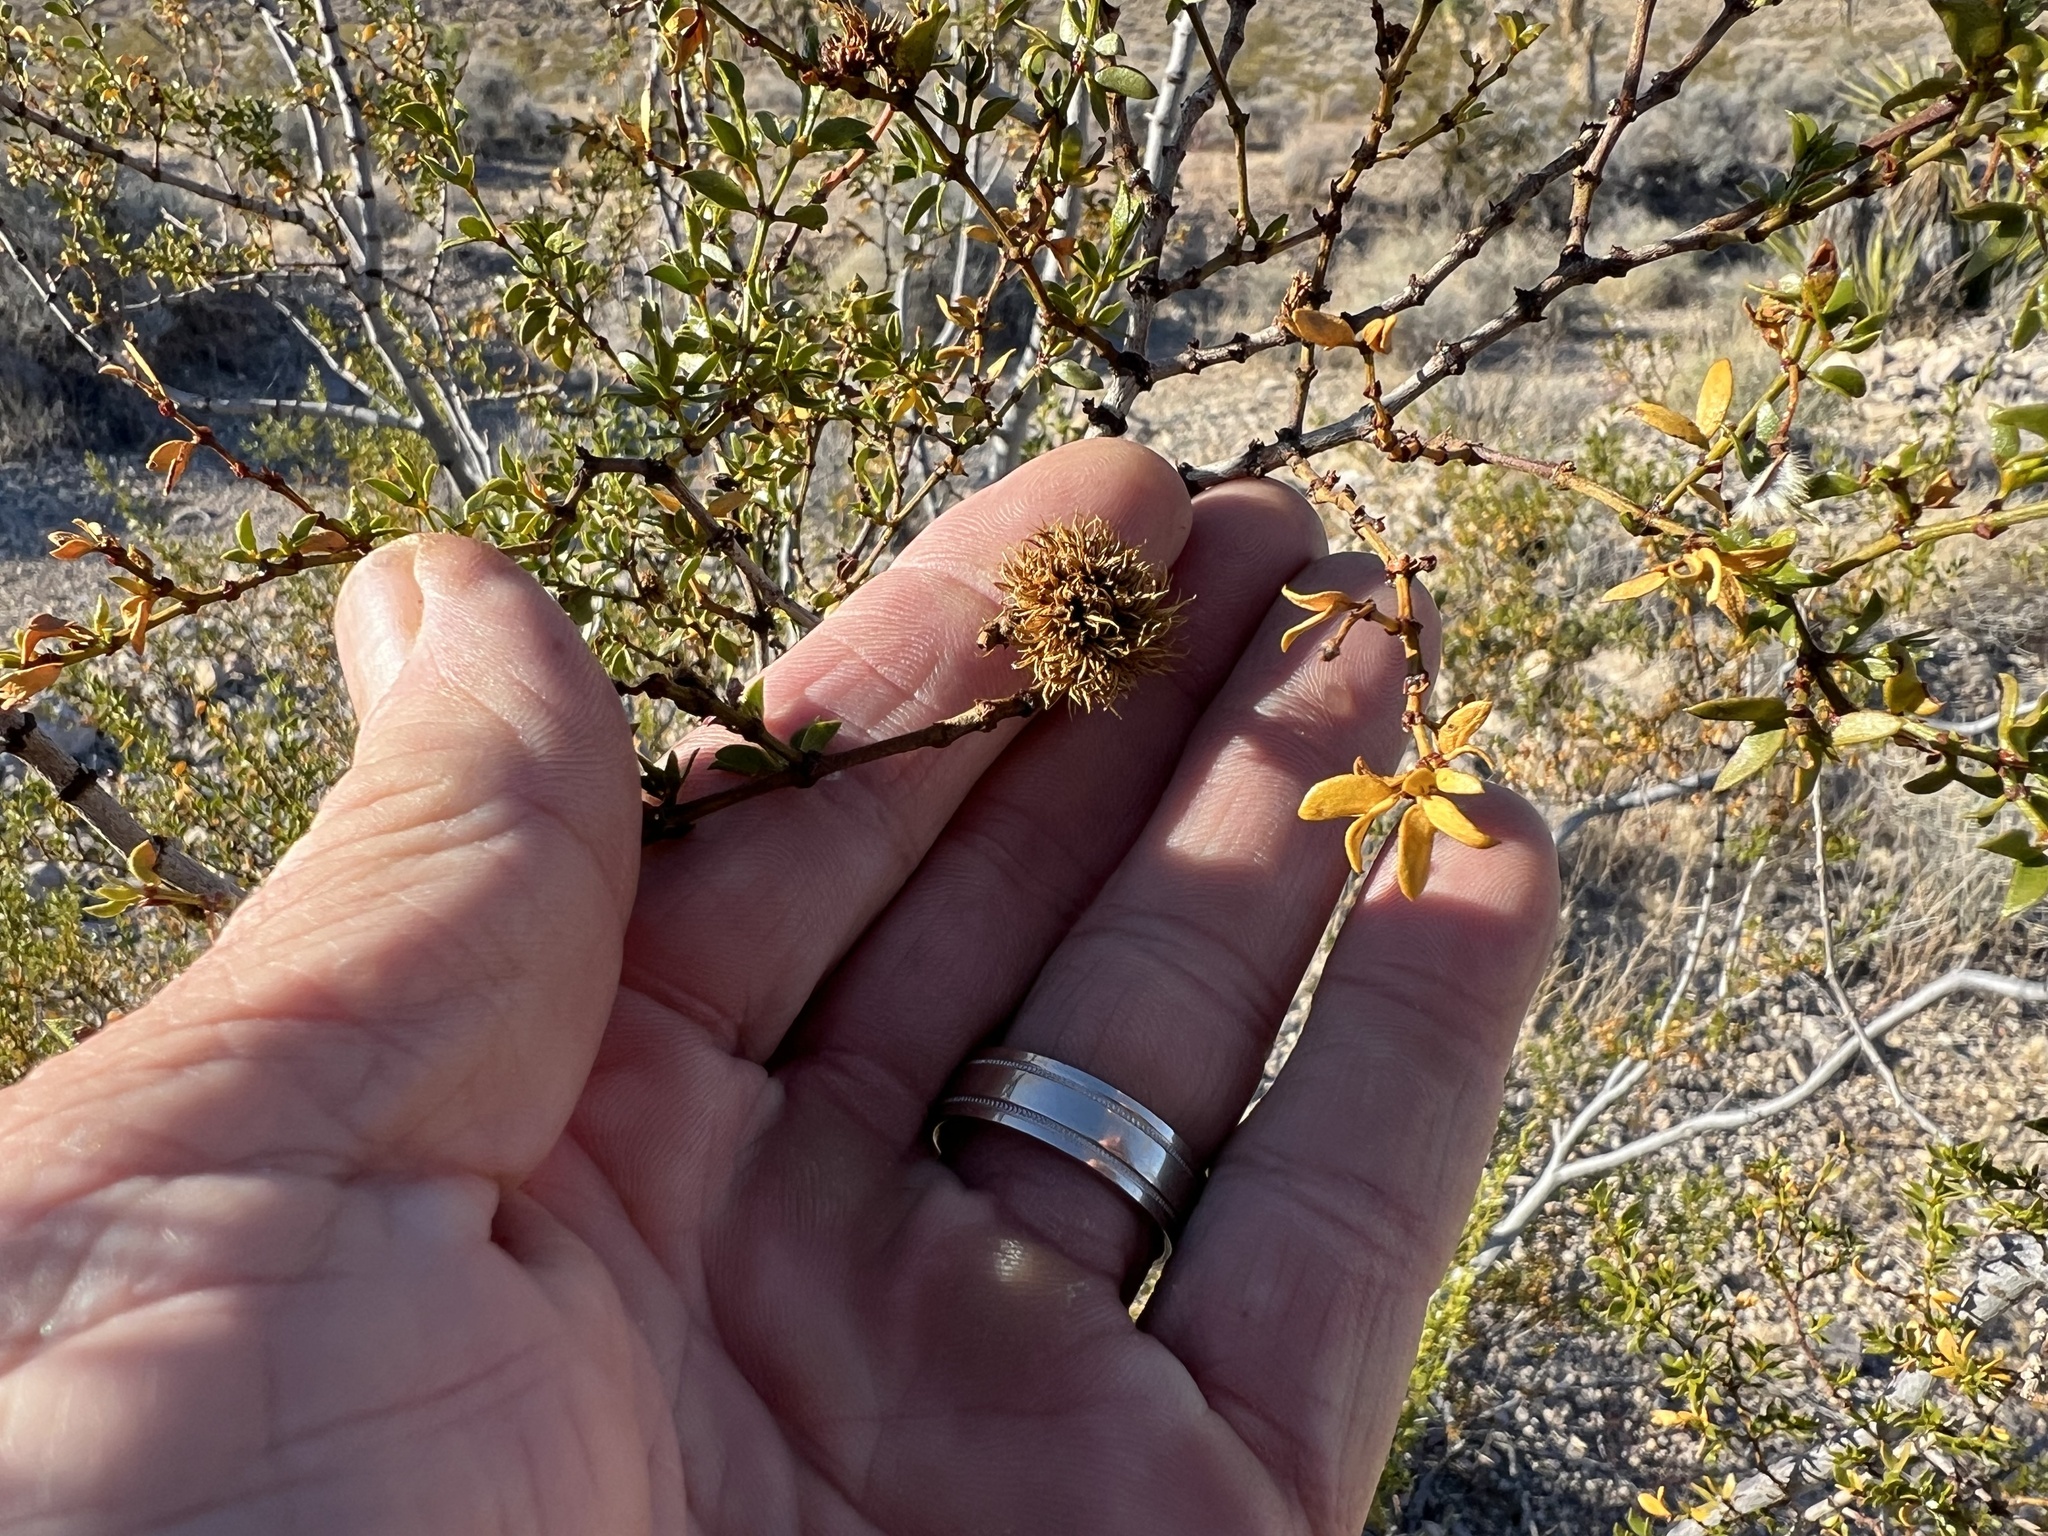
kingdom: Animalia
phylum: Arthropoda
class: Insecta
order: Diptera
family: Cecidomyiidae
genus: Asphondylia
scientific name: Asphondylia auripila
